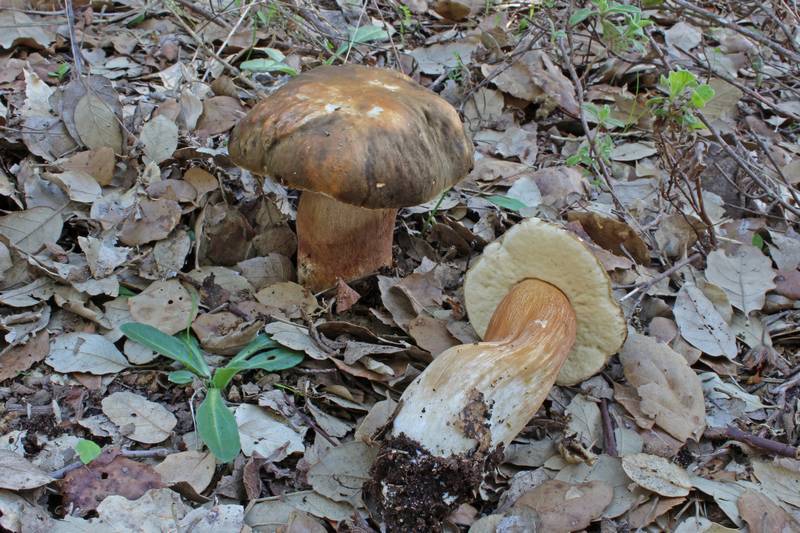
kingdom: Fungi
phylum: Basidiomycota
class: Agaricomycetes
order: Boletales
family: Boletaceae
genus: Boletus
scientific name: Boletus aereus
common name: Bronze bolete
